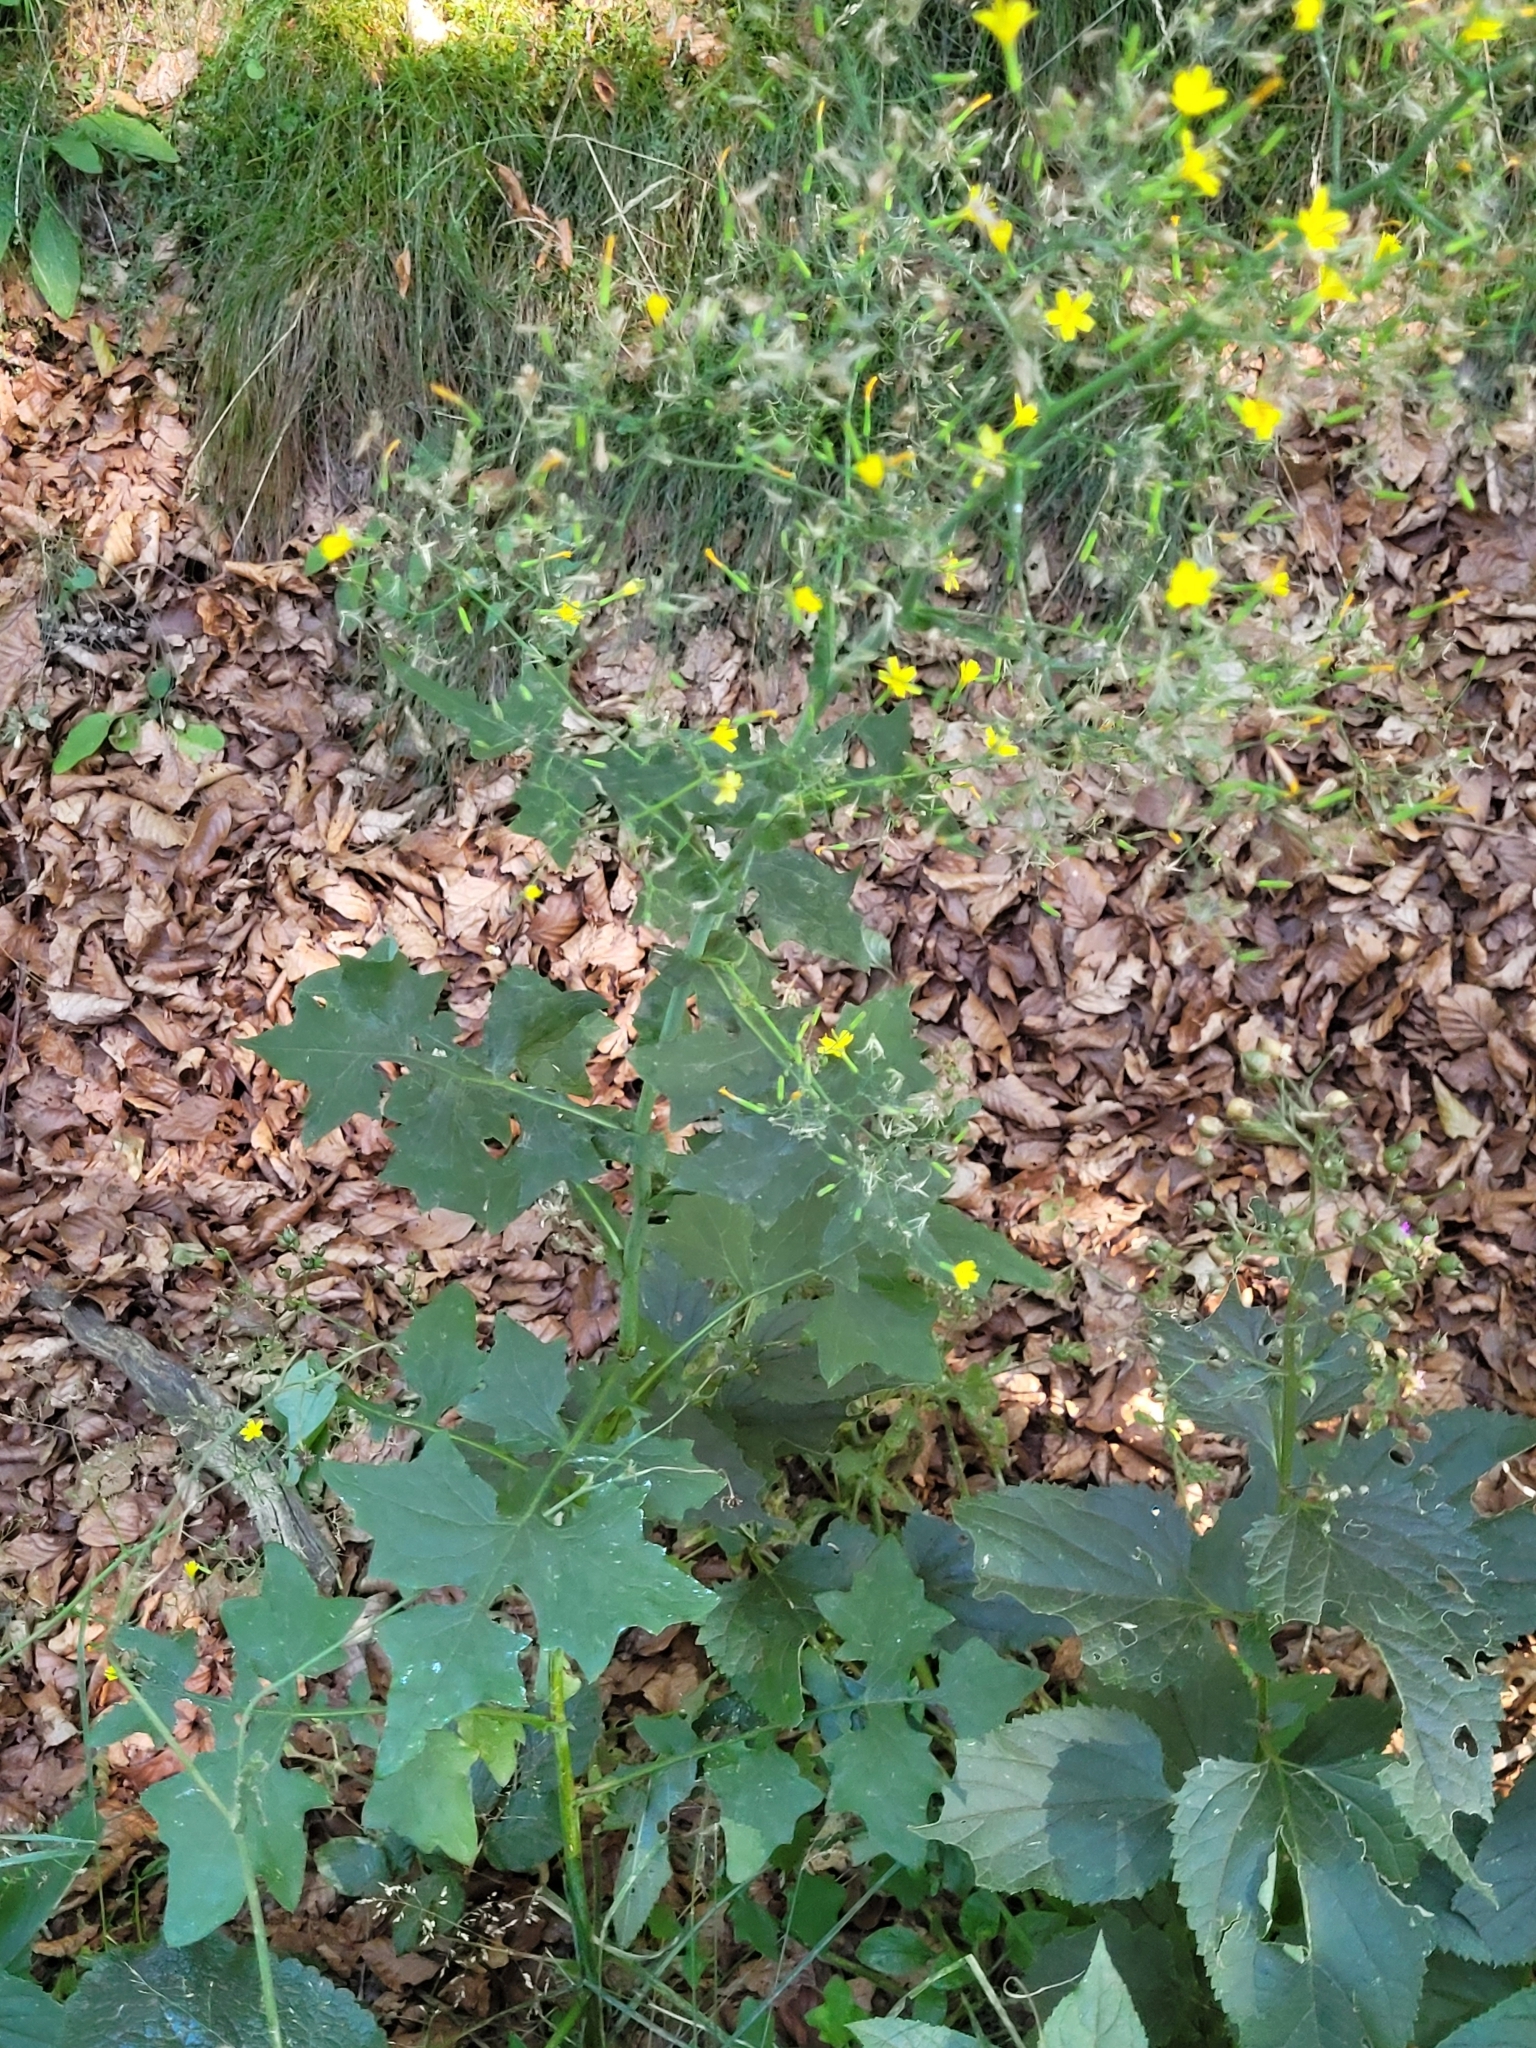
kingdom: Plantae
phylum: Tracheophyta
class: Magnoliopsida
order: Asterales
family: Asteraceae
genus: Mycelis
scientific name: Mycelis muralis
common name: Wall lettuce
